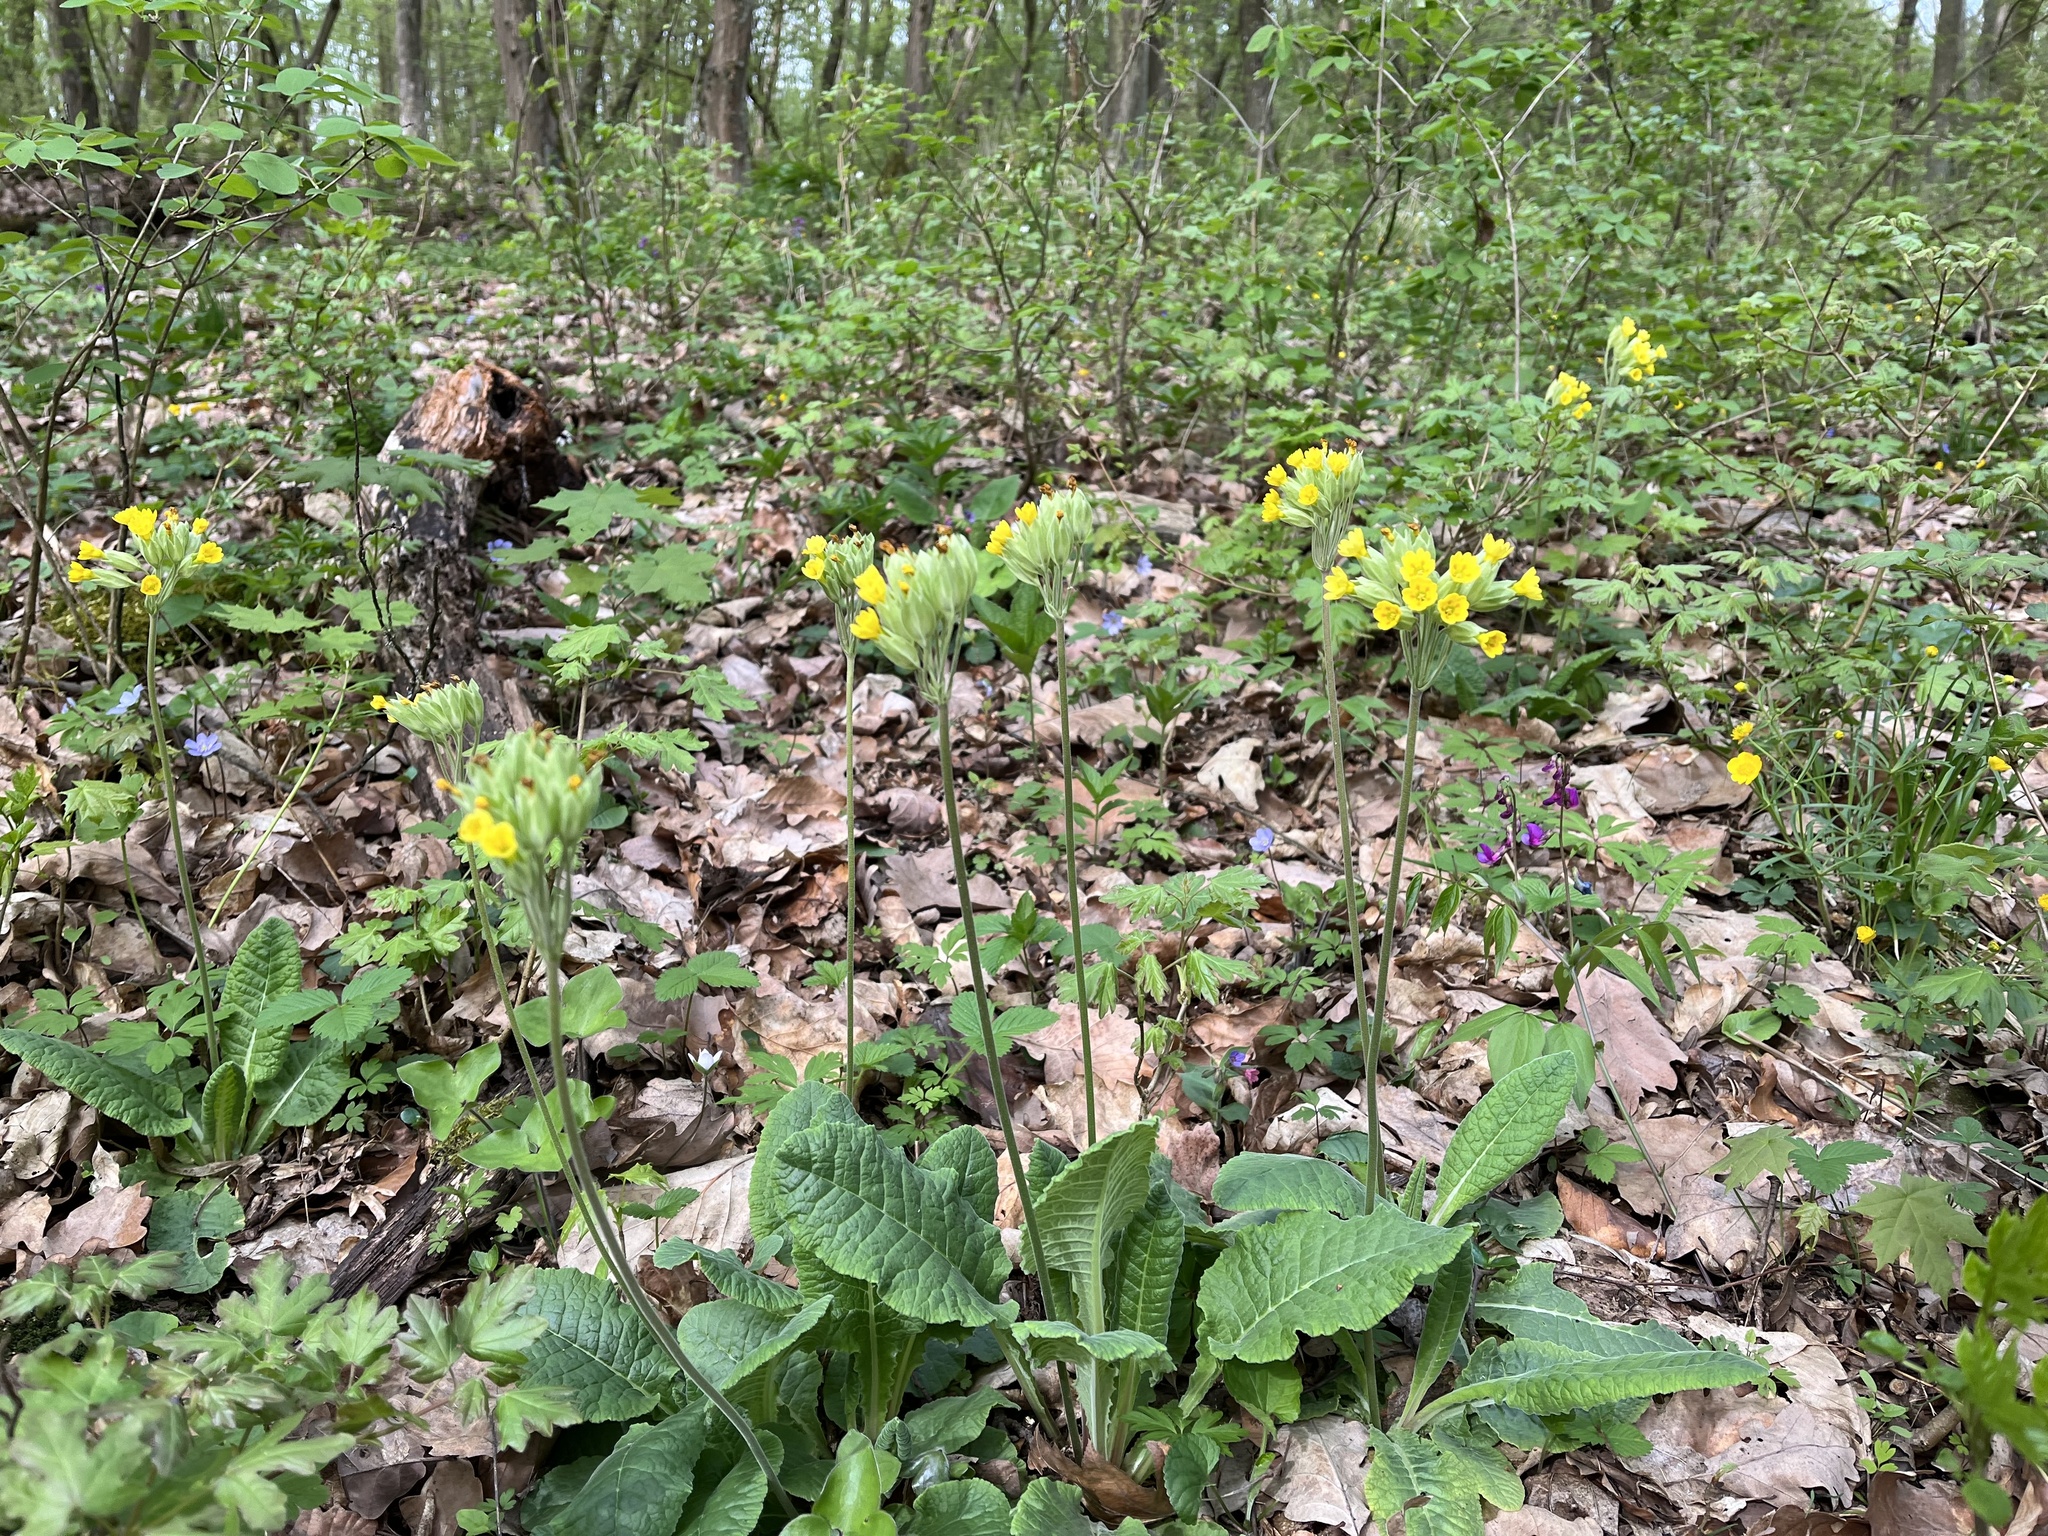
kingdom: Plantae
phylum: Tracheophyta
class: Magnoliopsida
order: Ericales
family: Primulaceae
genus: Primula
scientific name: Primula veris
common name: Cowslip
